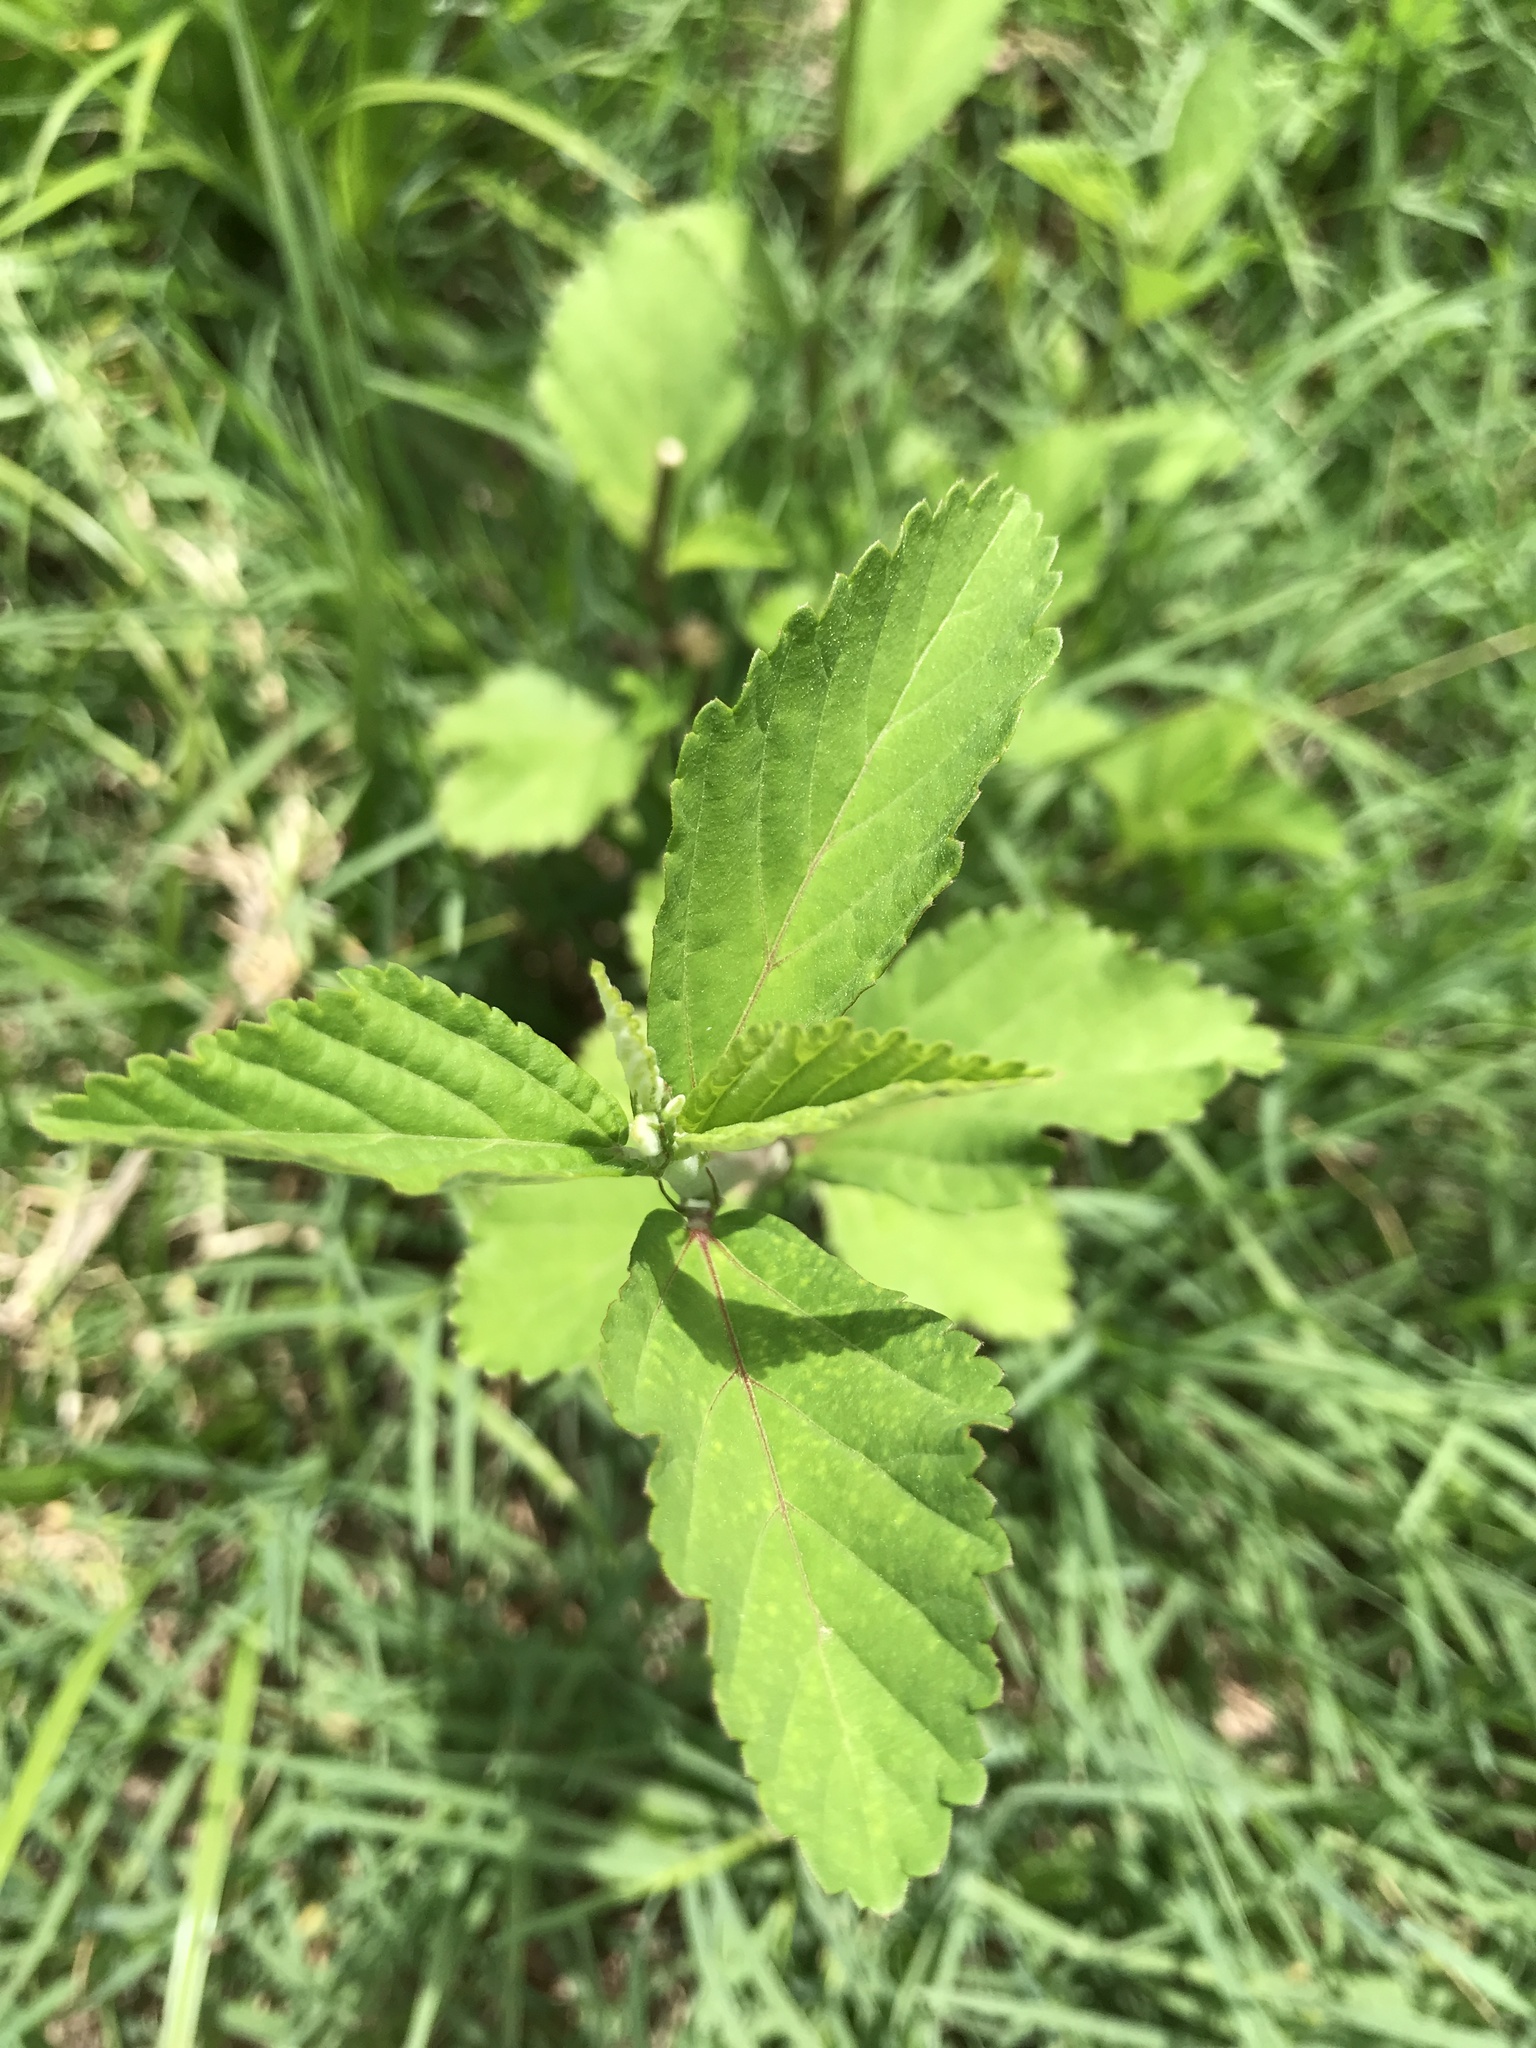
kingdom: Plantae
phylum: Tracheophyta
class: Magnoliopsida
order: Malvales
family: Malvaceae
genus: Sida
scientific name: Sida rhombifolia
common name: Queensland-hemp
